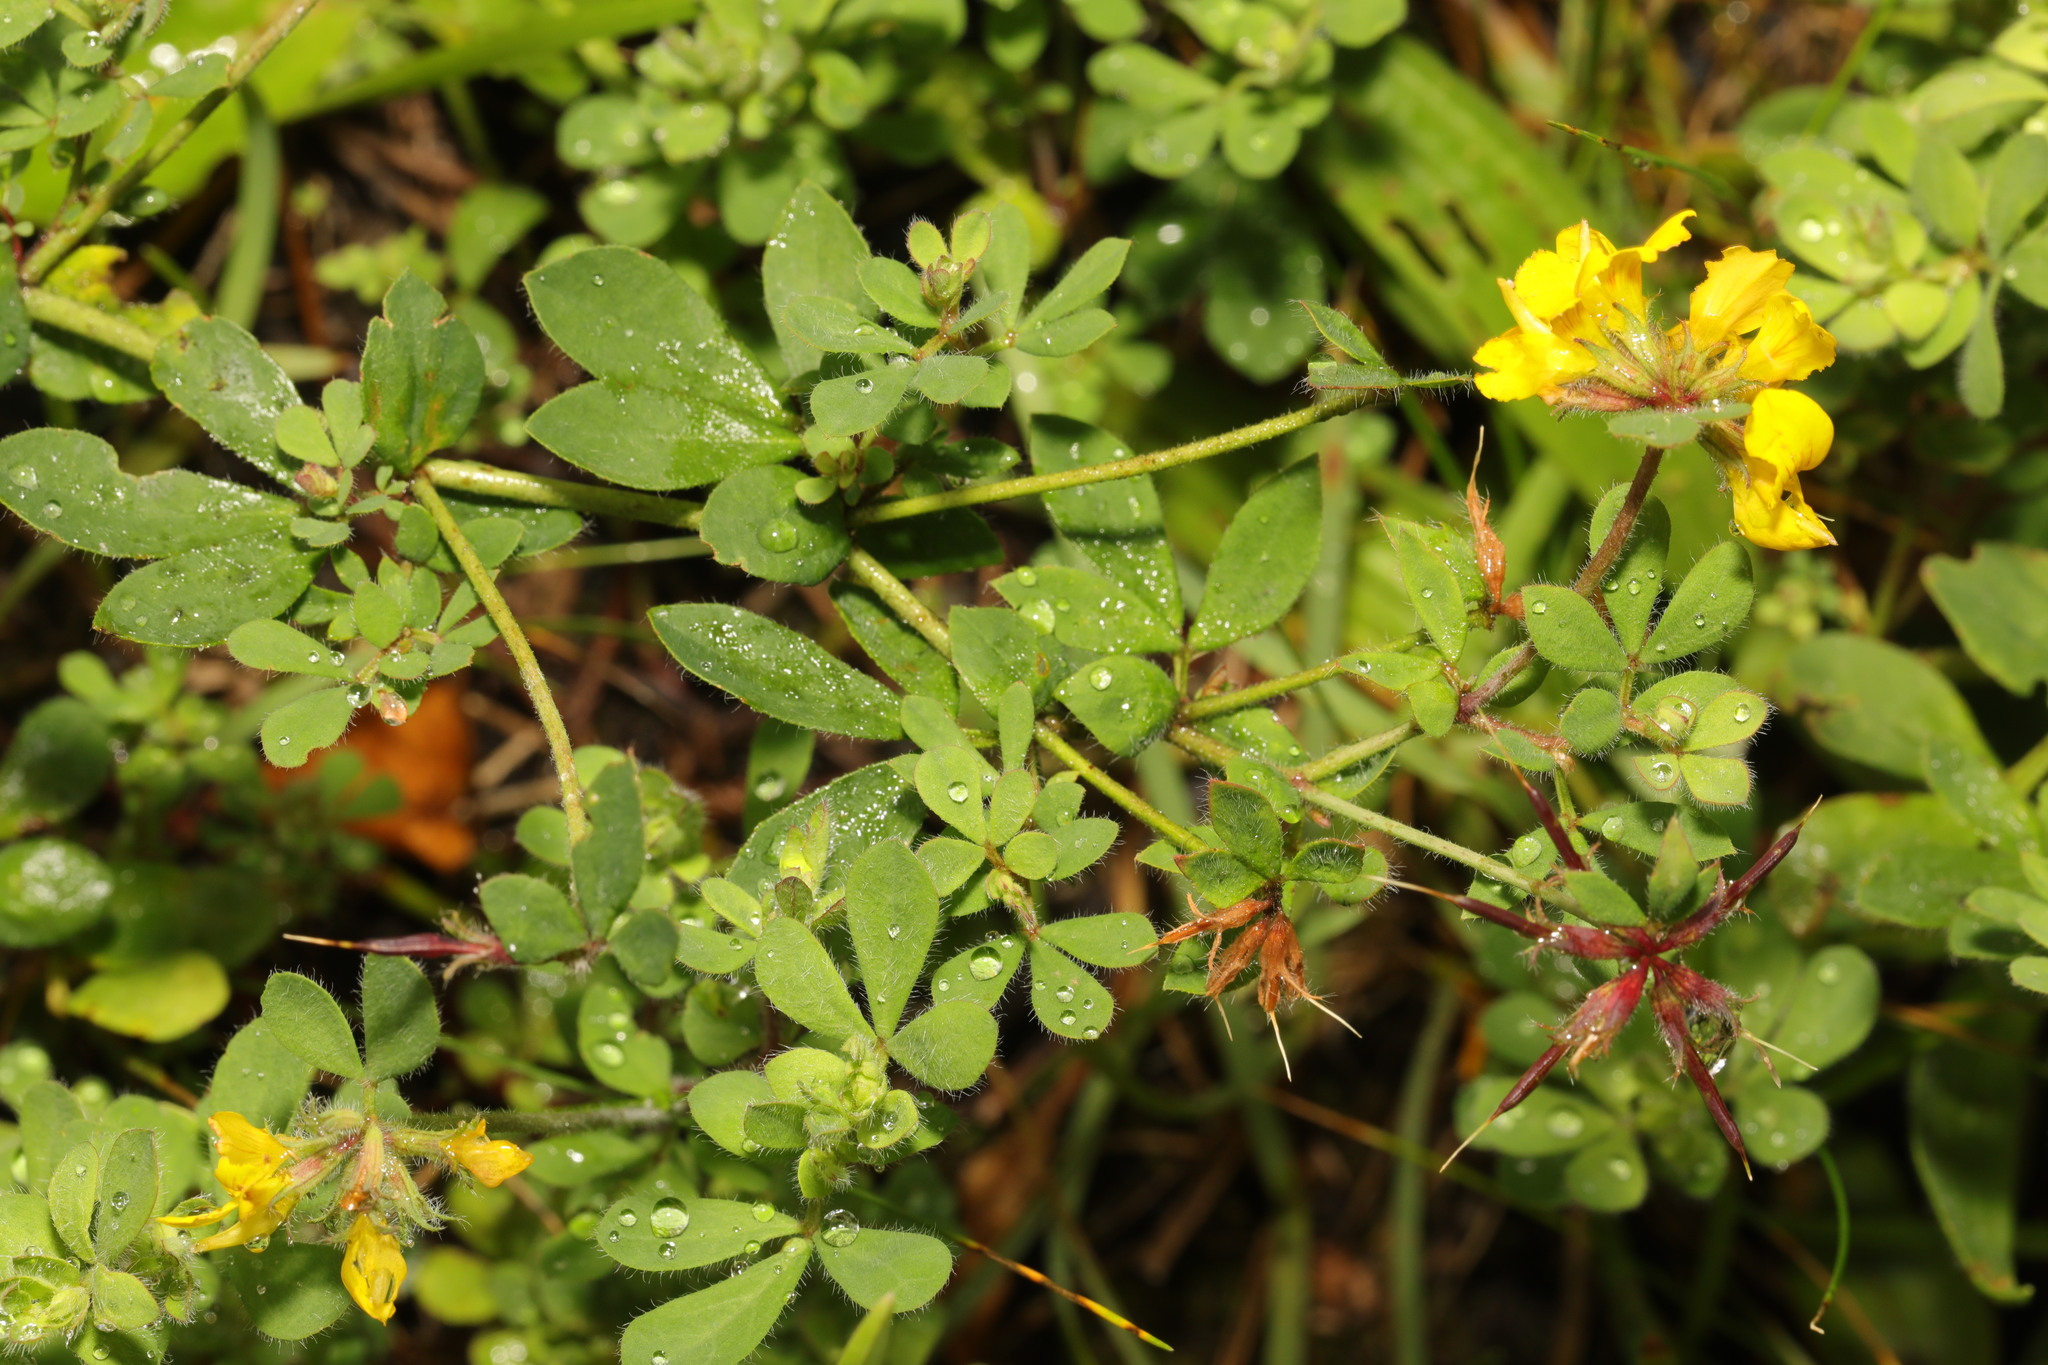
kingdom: Plantae
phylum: Tracheophyta
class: Magnoliopsida
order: Fabales
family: Fabaceae
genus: Lotus
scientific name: Lotus pedunculatus
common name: Greater birdsfoot-trefoil
